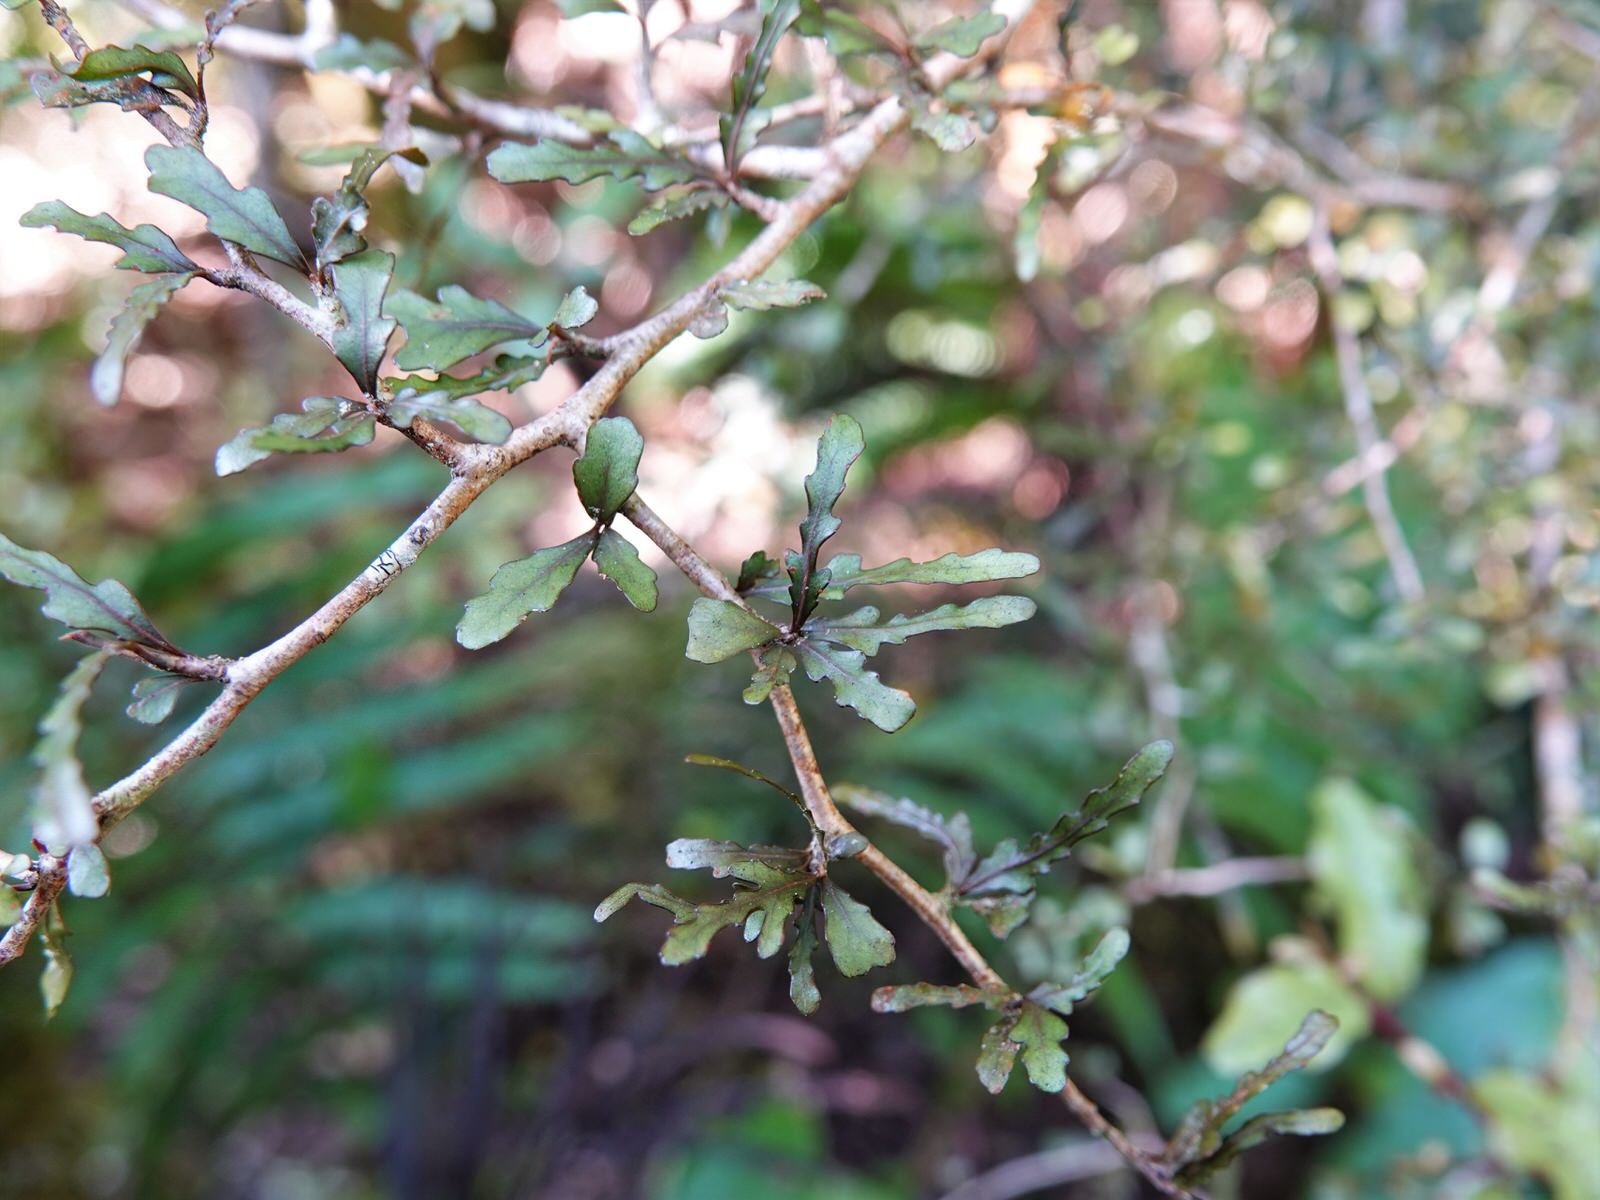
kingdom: Plantae
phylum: Tracheophyta
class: Magnoliopsida
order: Oxalidales
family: Elaeocarpaceae
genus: Elaeocarpus
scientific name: Elaeocarpus hookerianus
